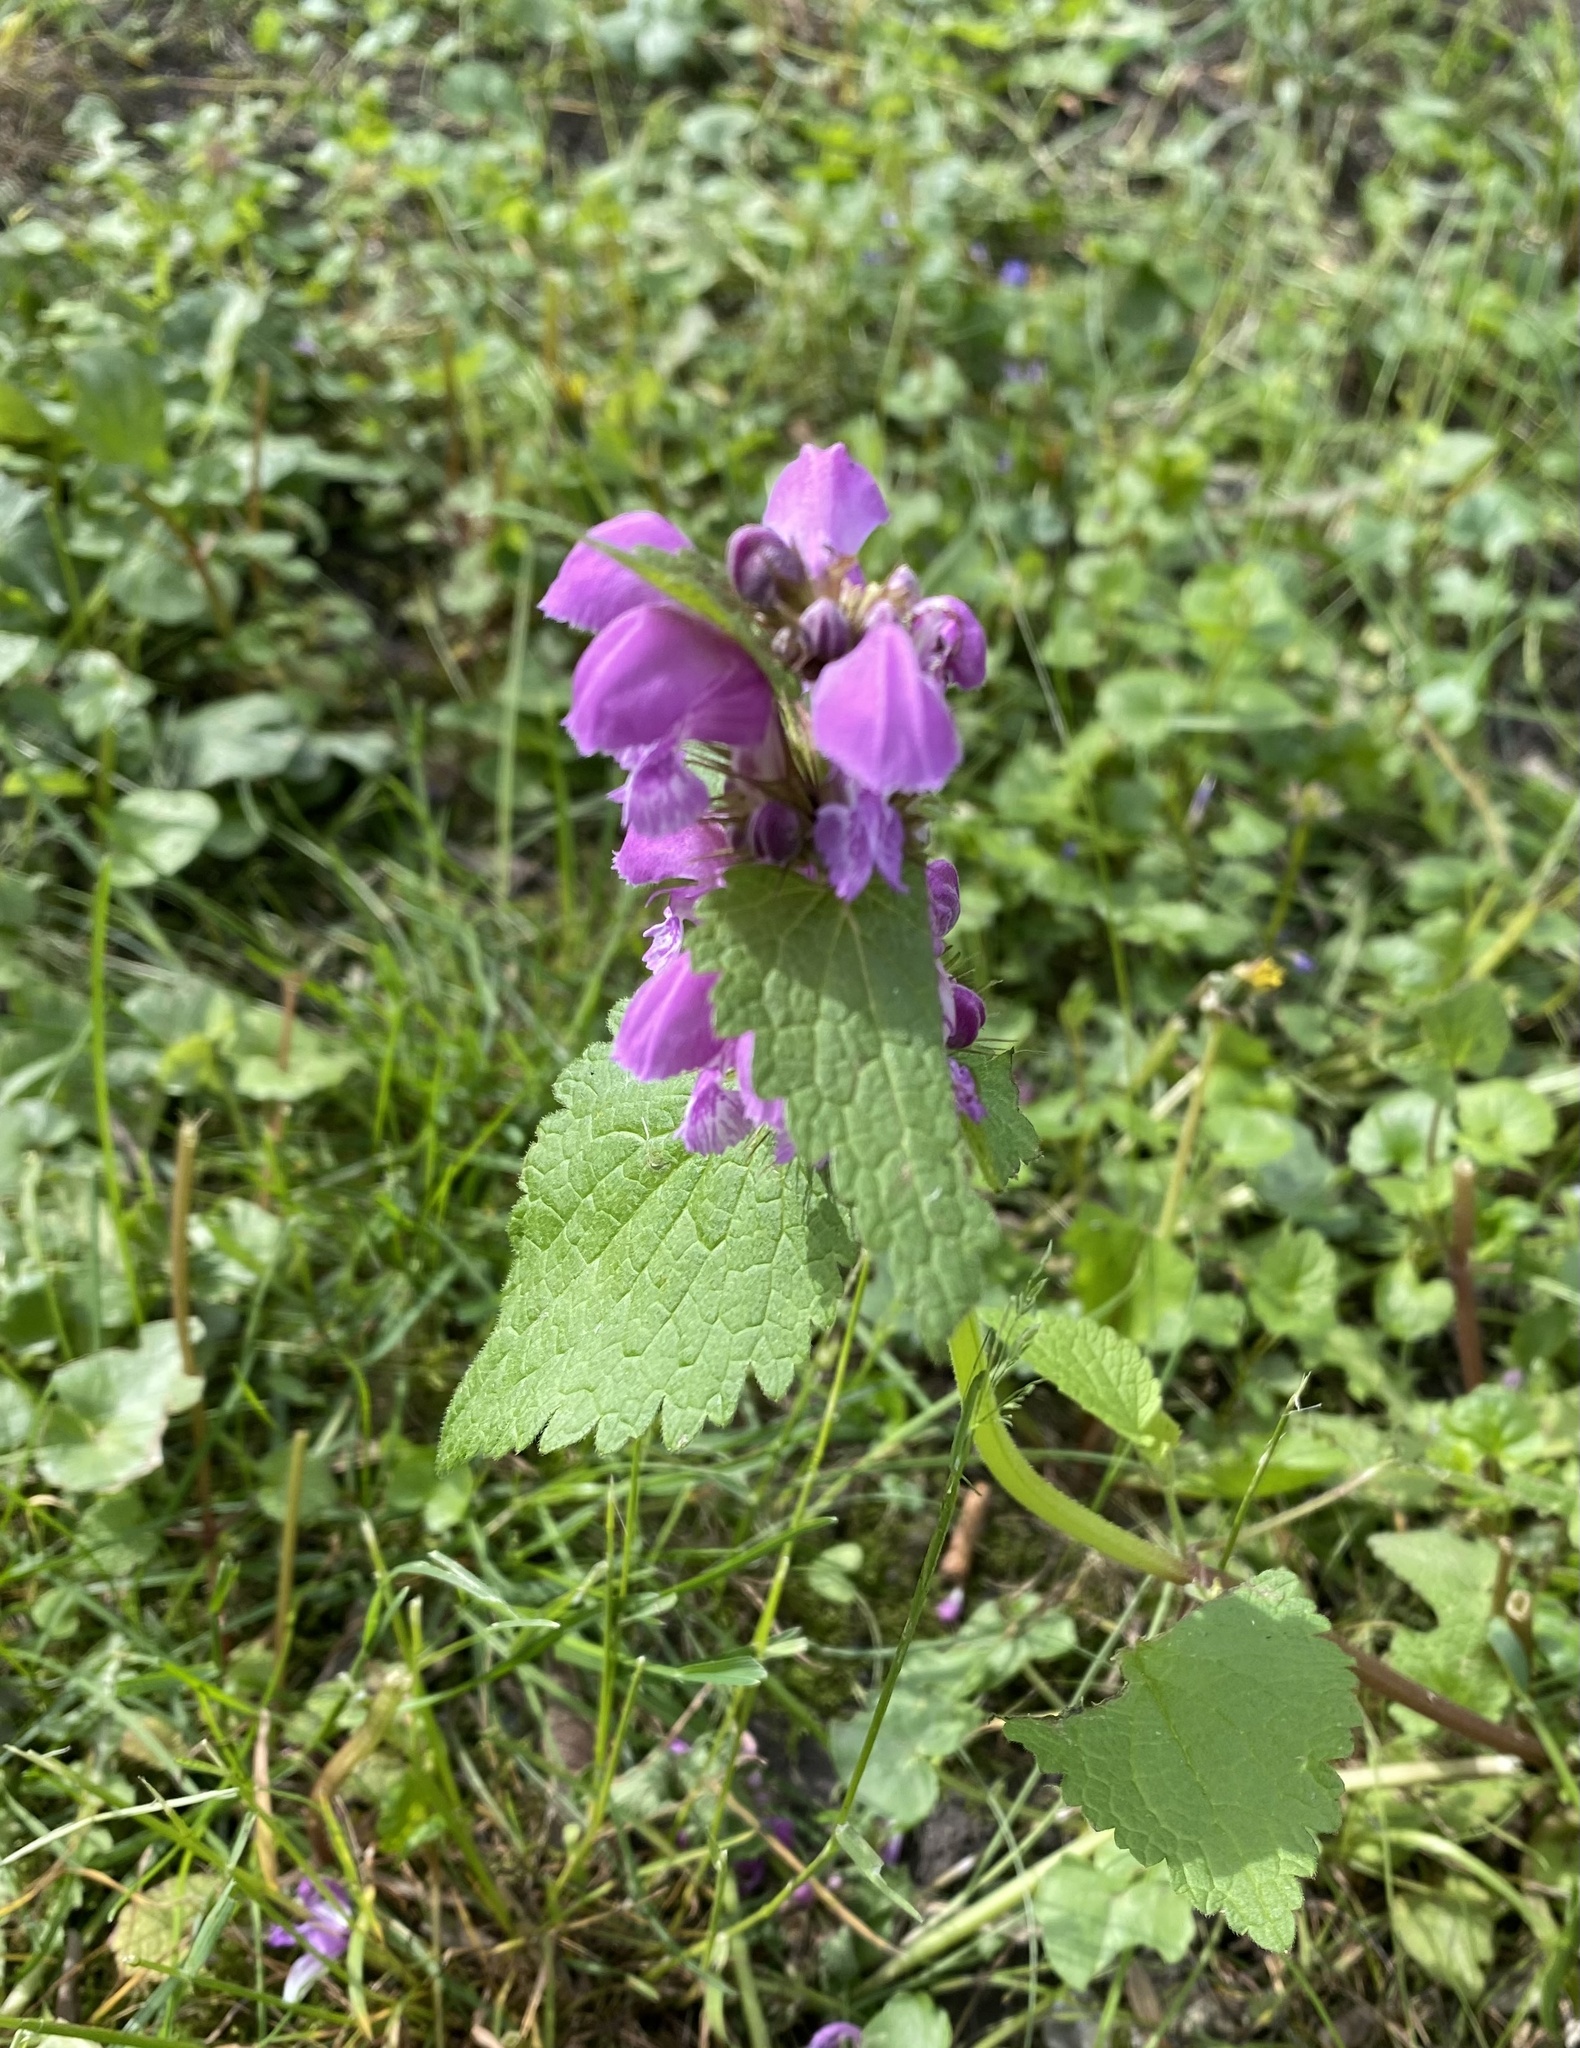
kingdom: Plantae
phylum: Tracheophyta
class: Magnoliopsida
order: Lamiales
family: Lamiaceae
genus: Lamium
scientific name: Lamium maculatum
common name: Spotted dead-nettle
